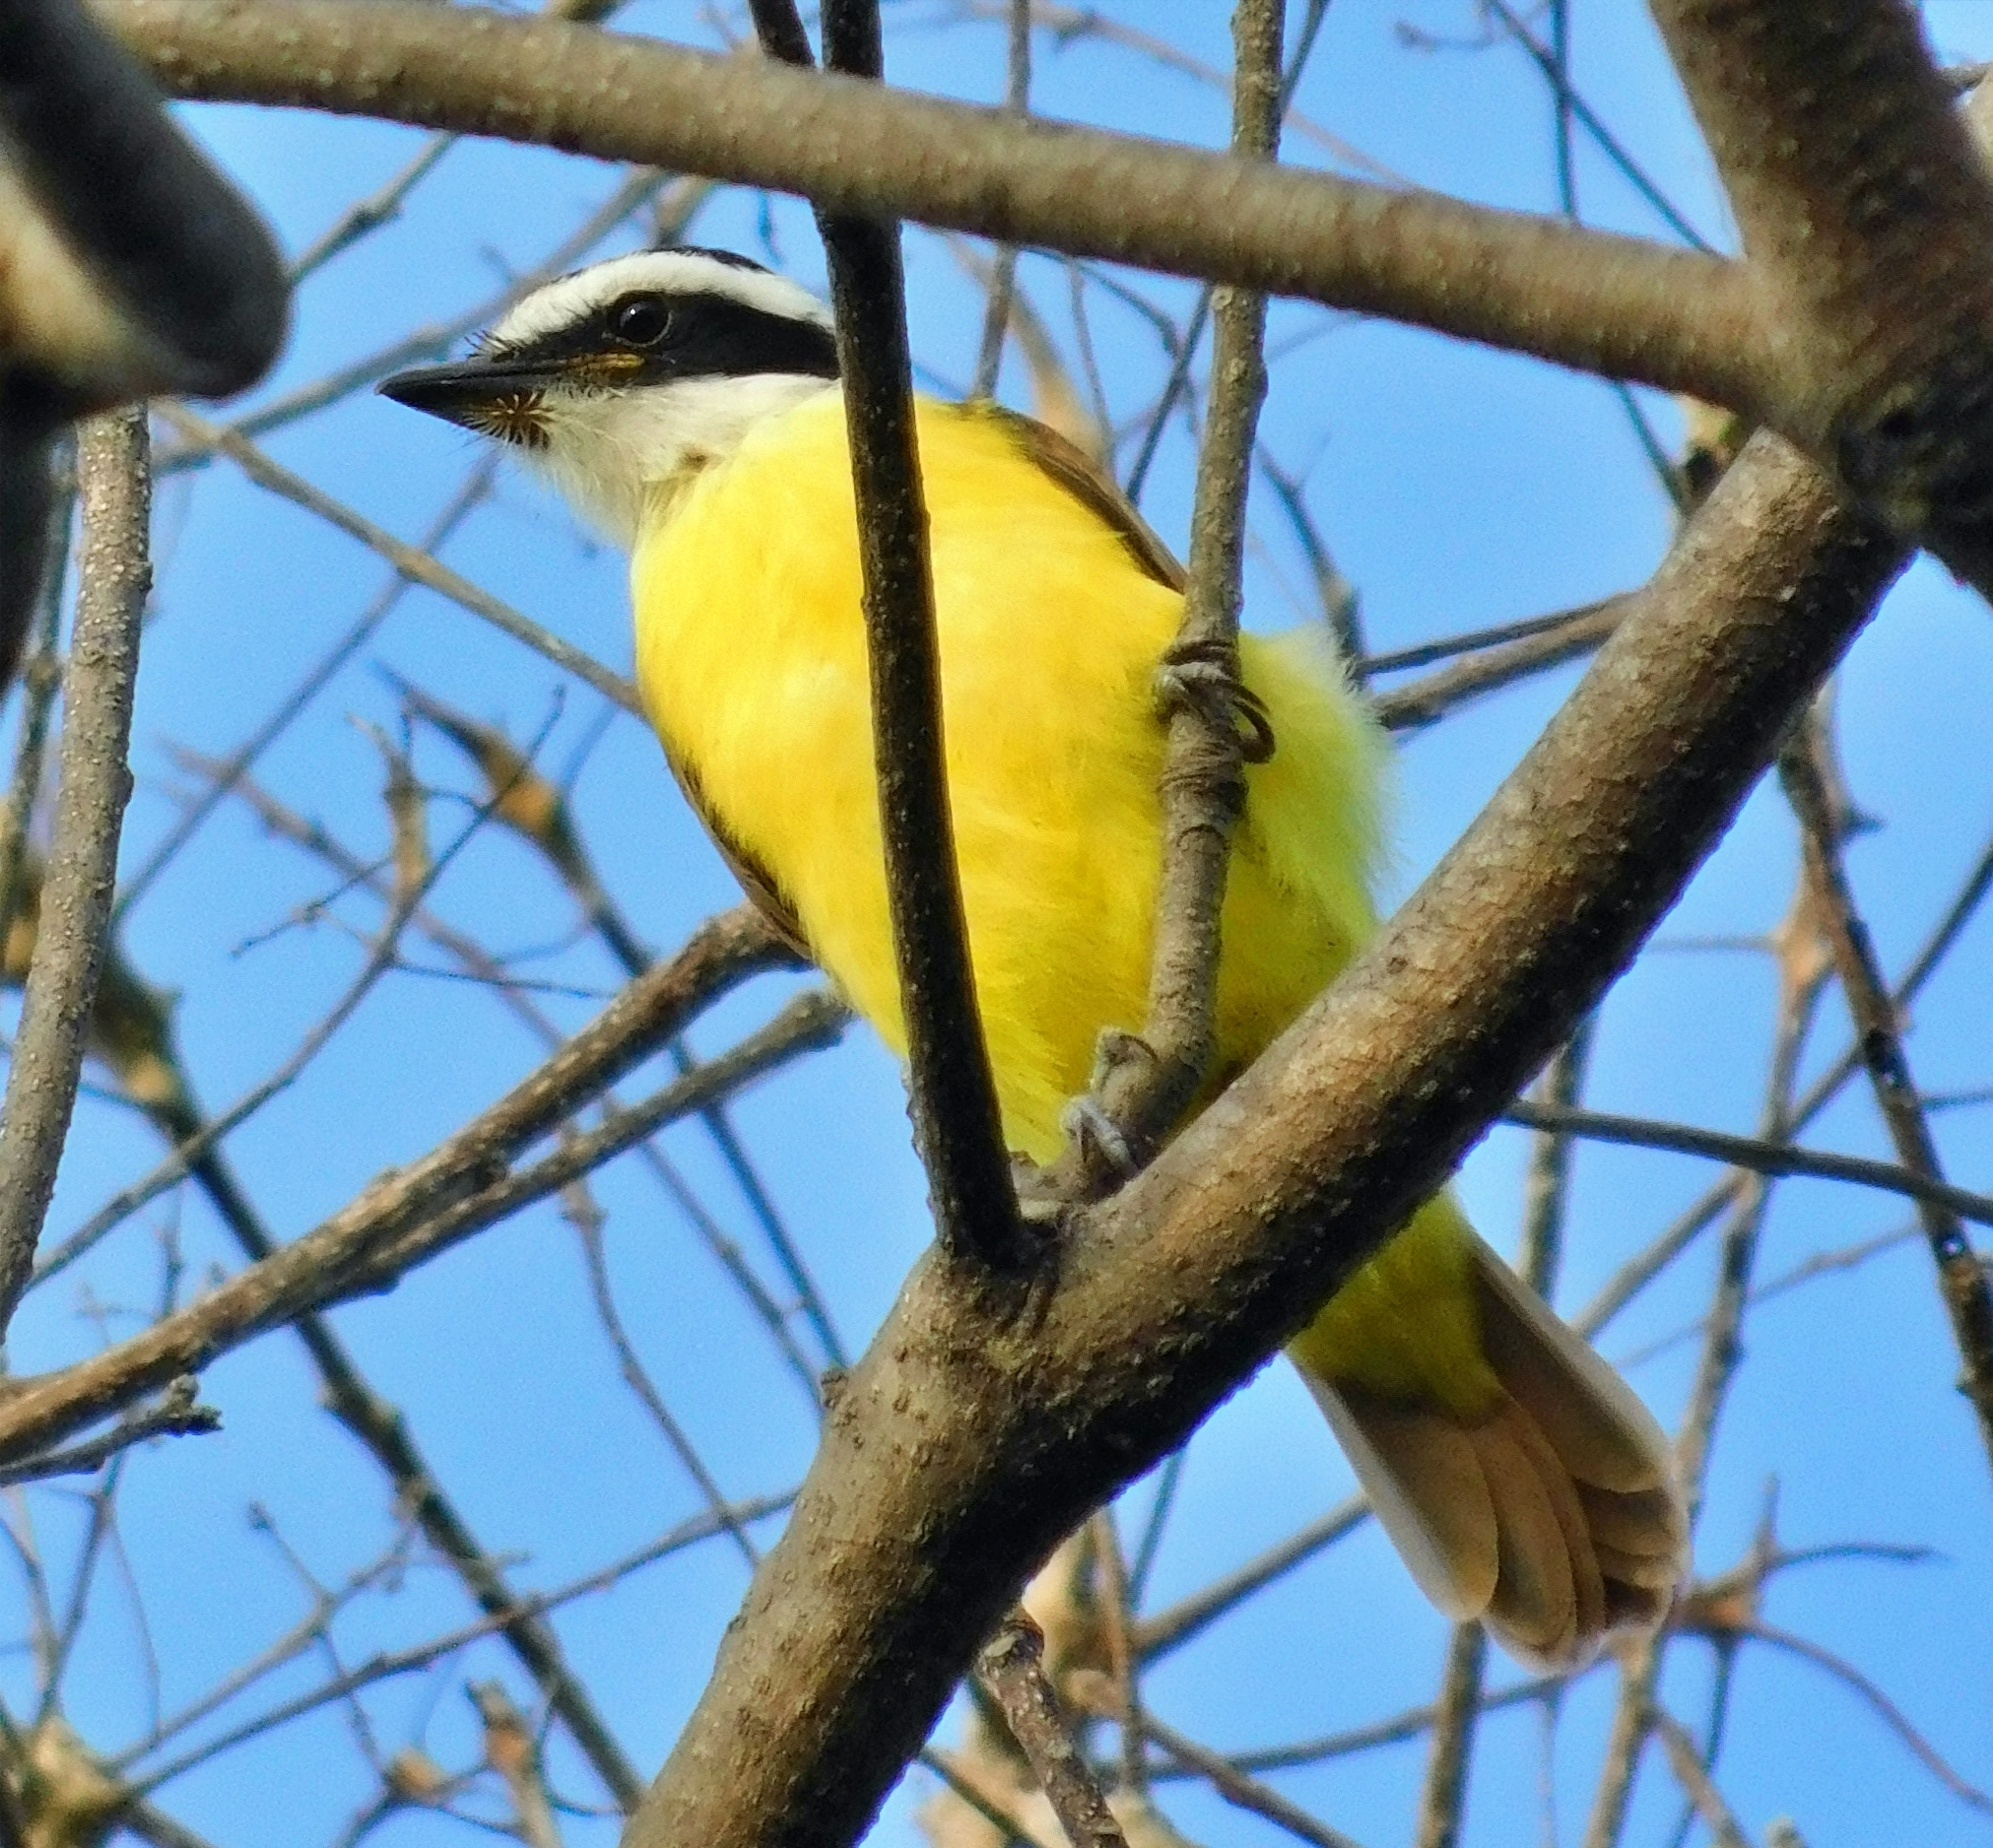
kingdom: Animalia
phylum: Chordata
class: Aves
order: Passeriformes
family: Tyrannidae
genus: Pitangus
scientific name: Pitangus sulphuratus
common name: Great kiskadee
